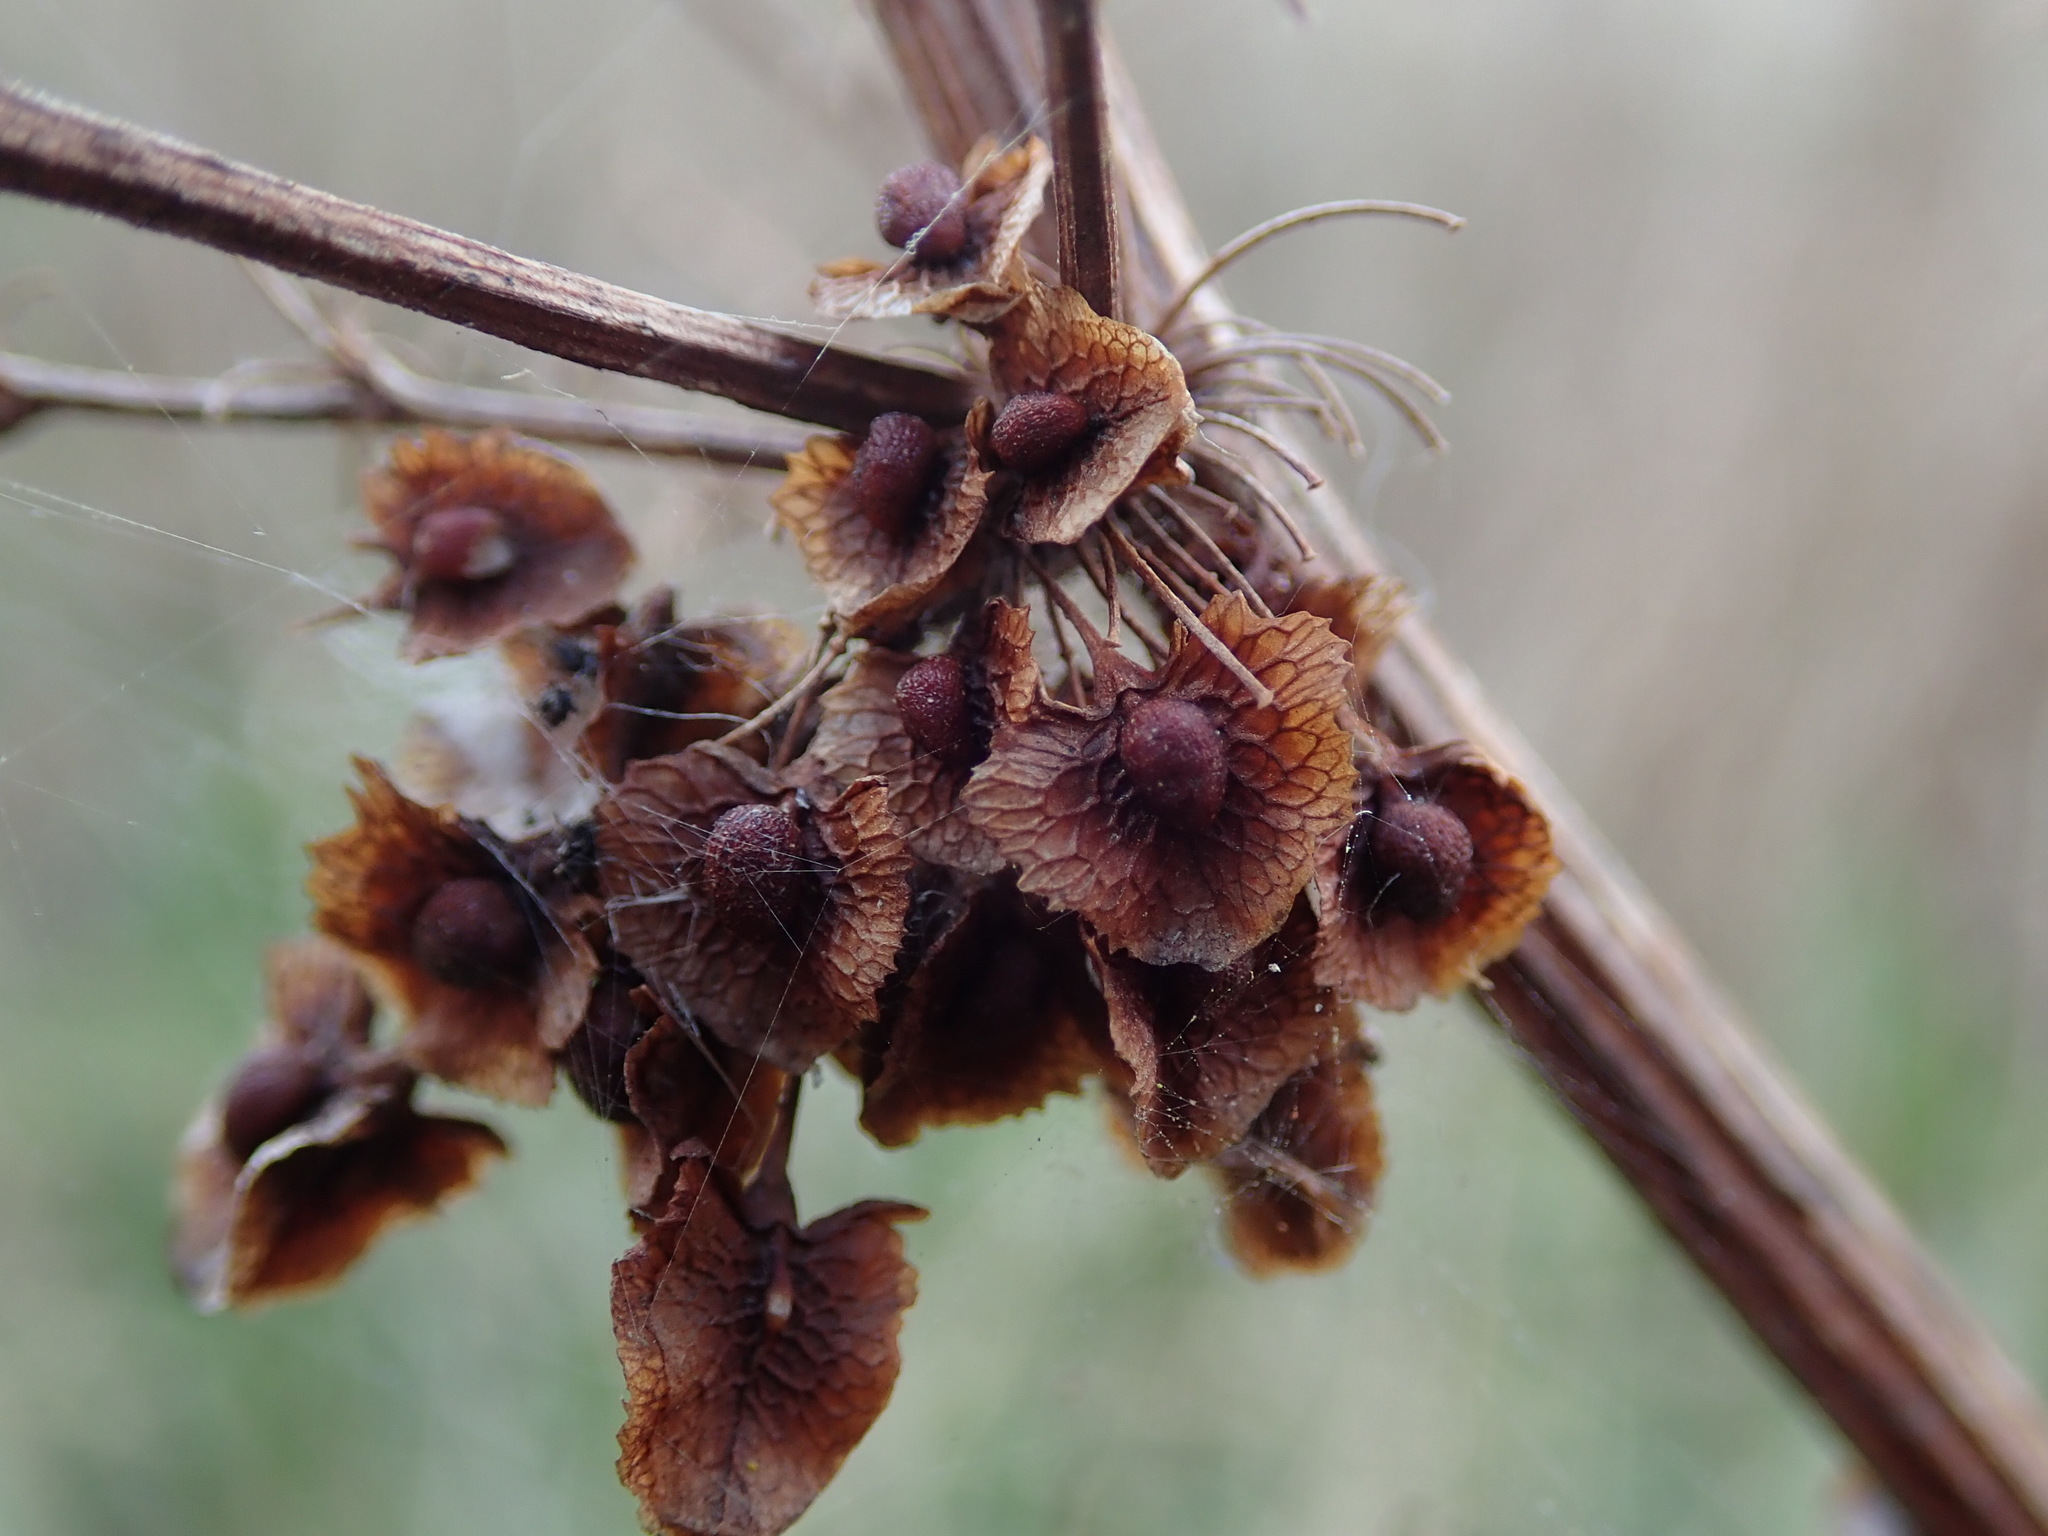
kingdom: Plantae
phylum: Tracheophyta
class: Magnoliopsida
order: Caryophyllales
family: Polygonaceae
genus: Rumex
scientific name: Rumex cristatus
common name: Greek dock
